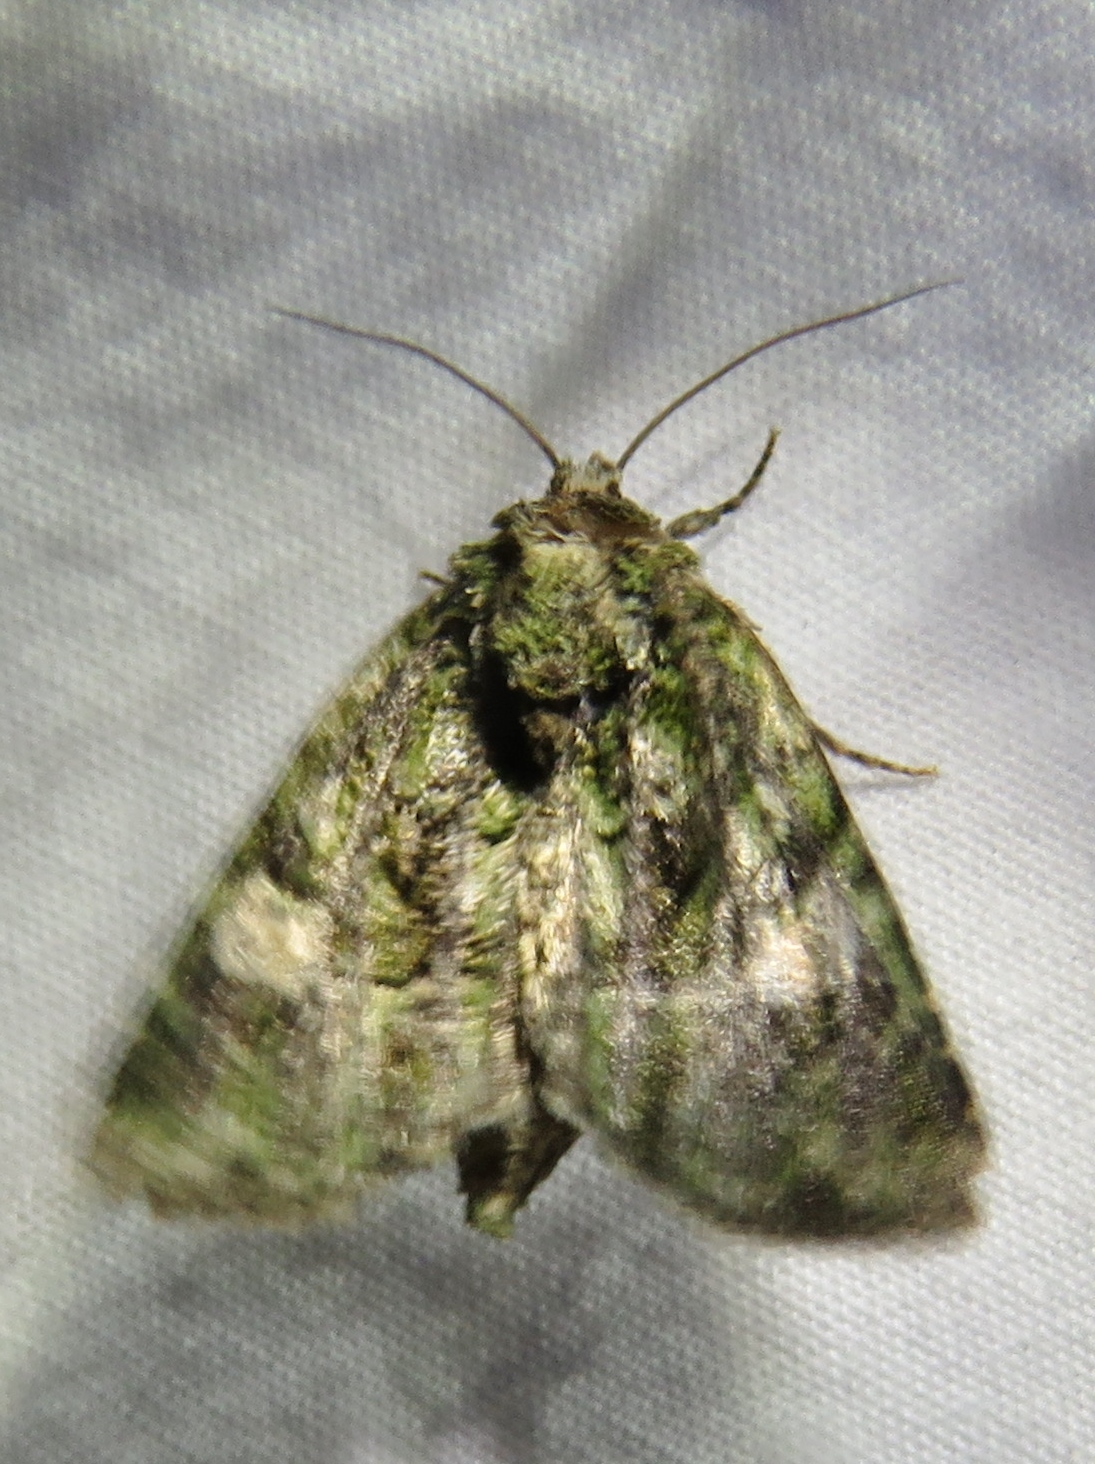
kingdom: Animalia
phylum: Arthropoda
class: Insecta
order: Lepidoptera
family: Noctuidae
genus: Phosphila
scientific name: Phosphila miselioides
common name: Spotted phosphila moth
